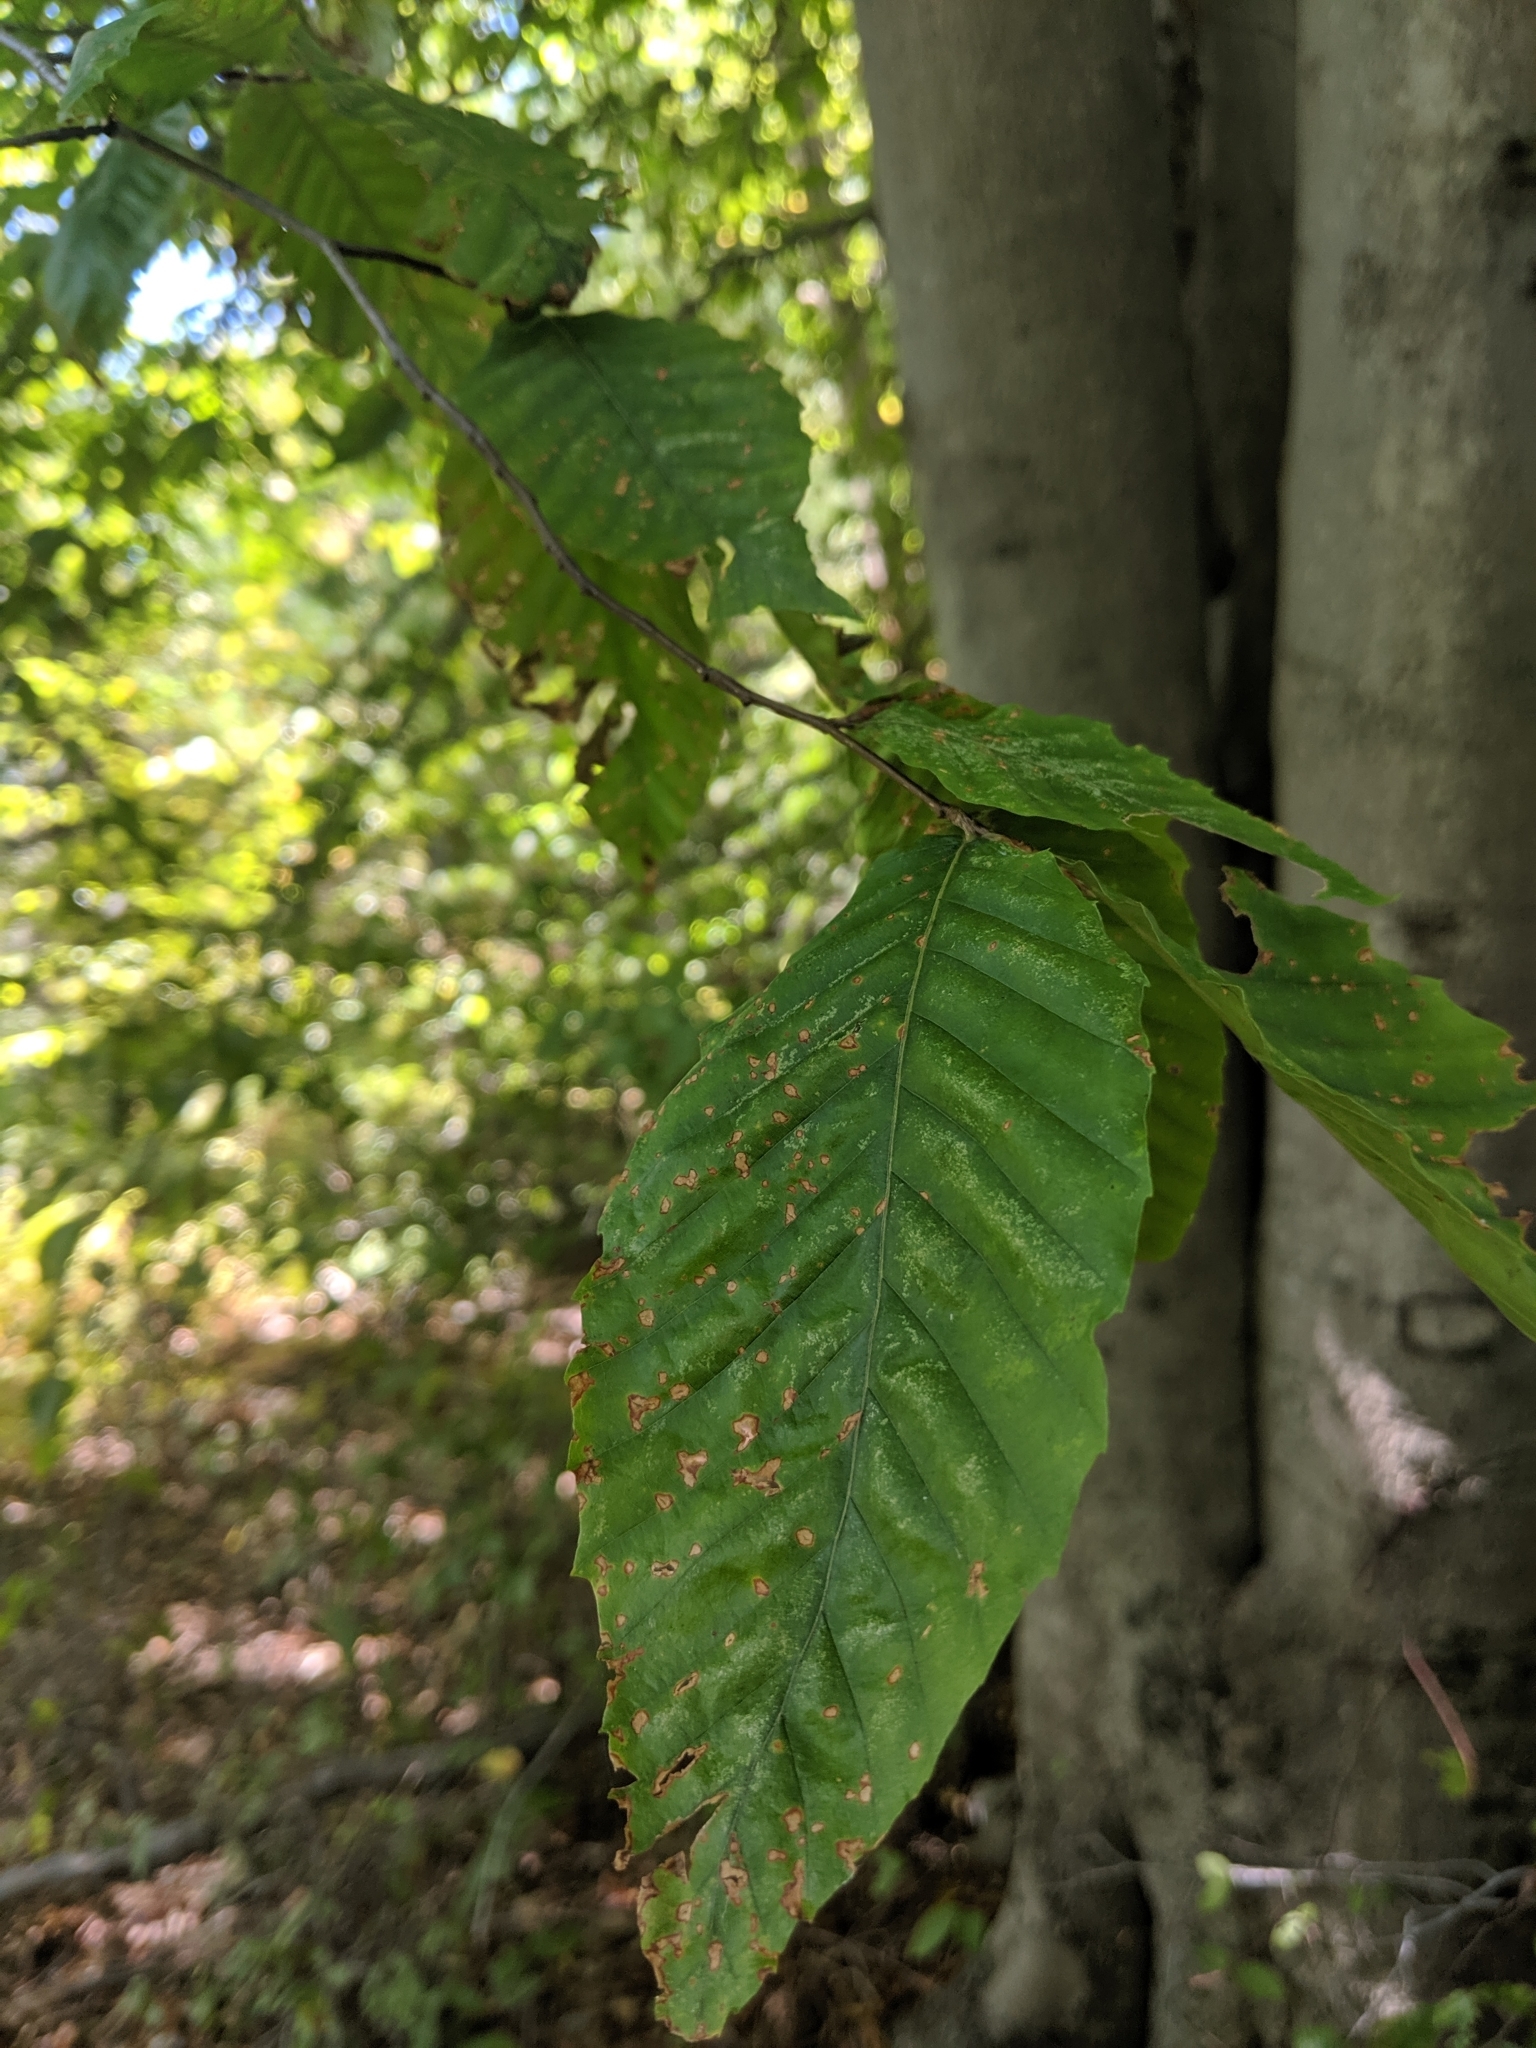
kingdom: Plantae
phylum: Tracheophyta
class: Magnoliopsida
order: Fagales
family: Fagaceae
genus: Fagus
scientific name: Fagus grandifolia
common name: American beech
